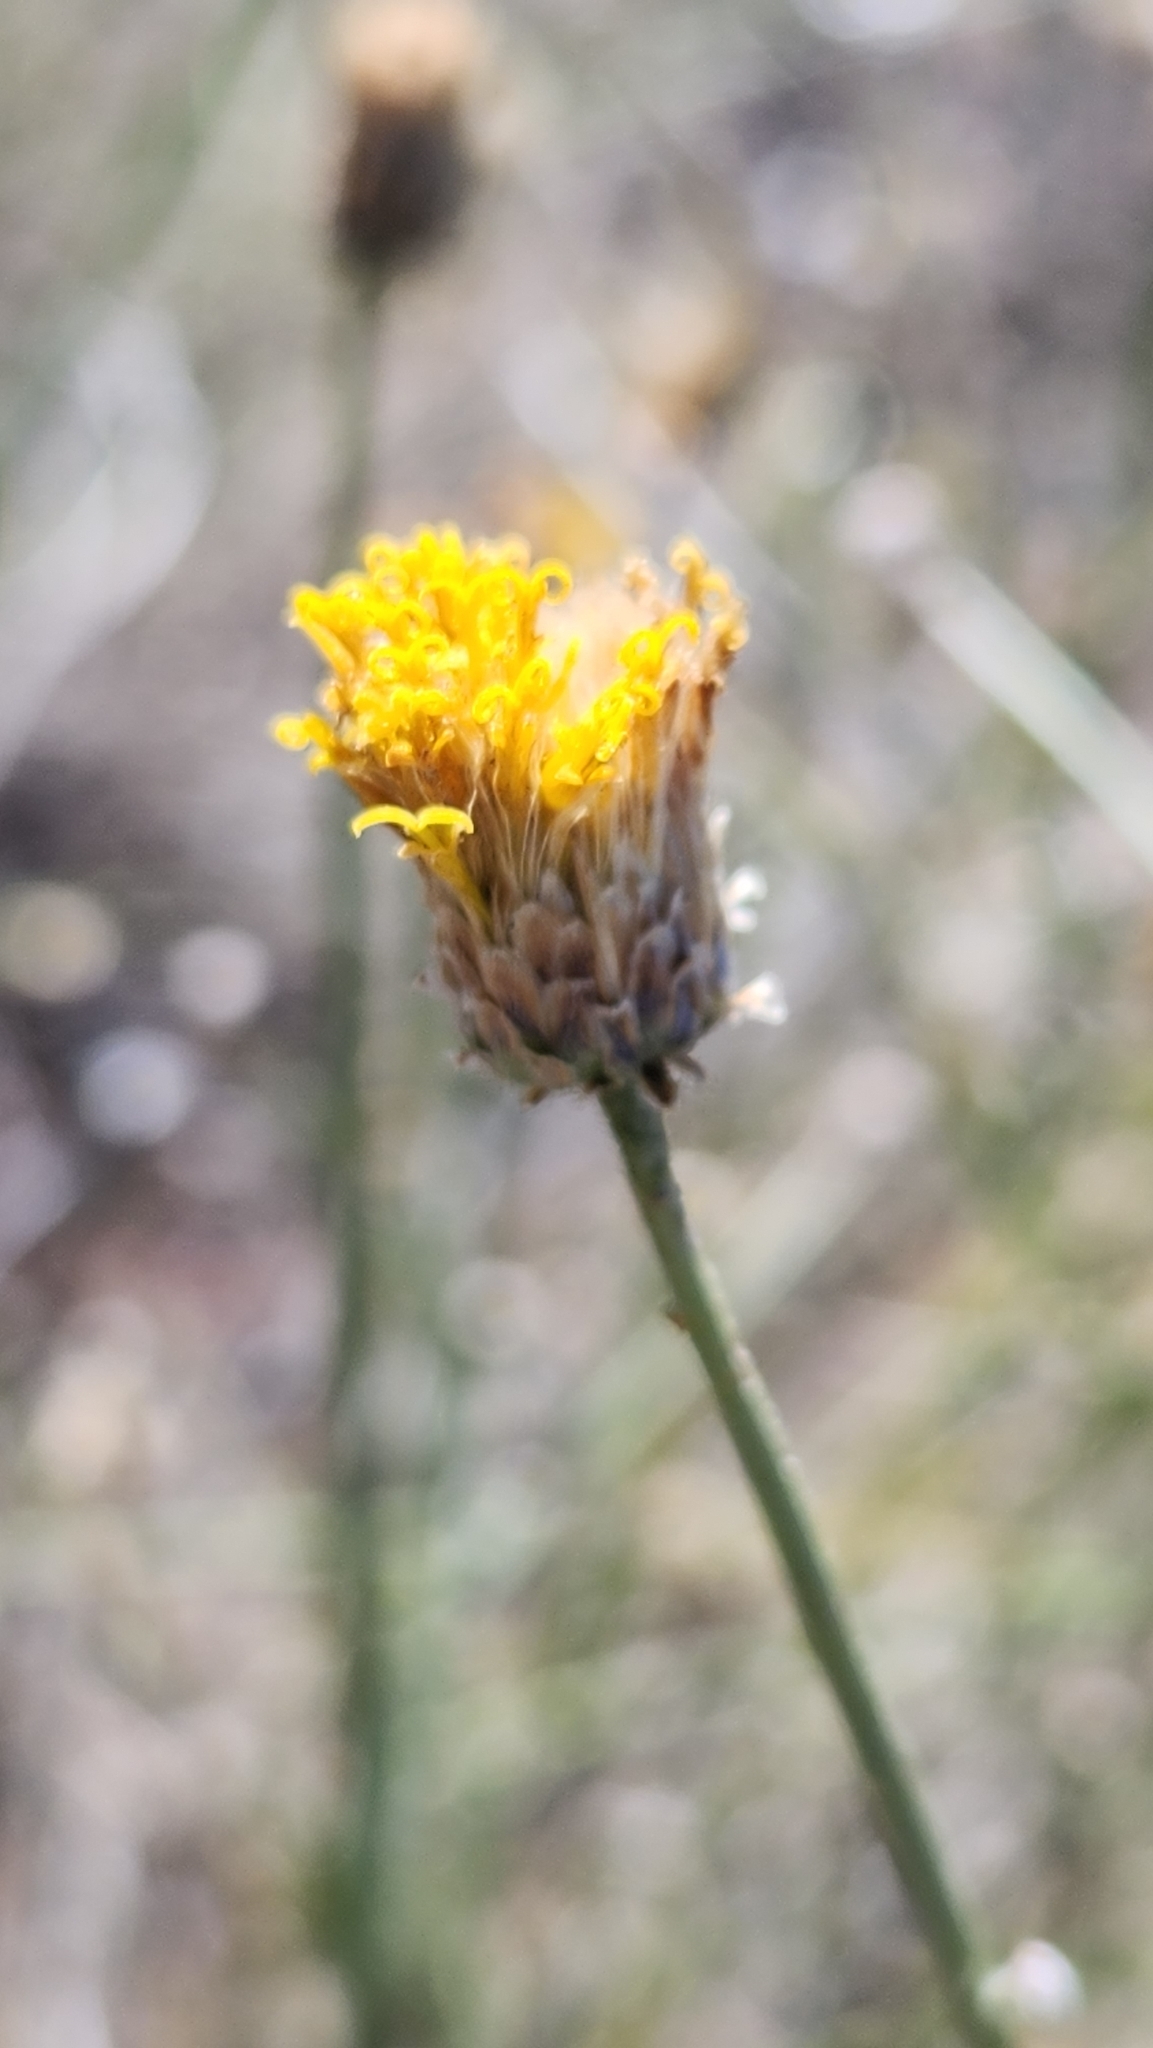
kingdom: Plantae
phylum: Tracheophyta
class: Magnoliopsida
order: Asterales
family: Asteraceae
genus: Bebbia
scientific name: Bebbia juncea
